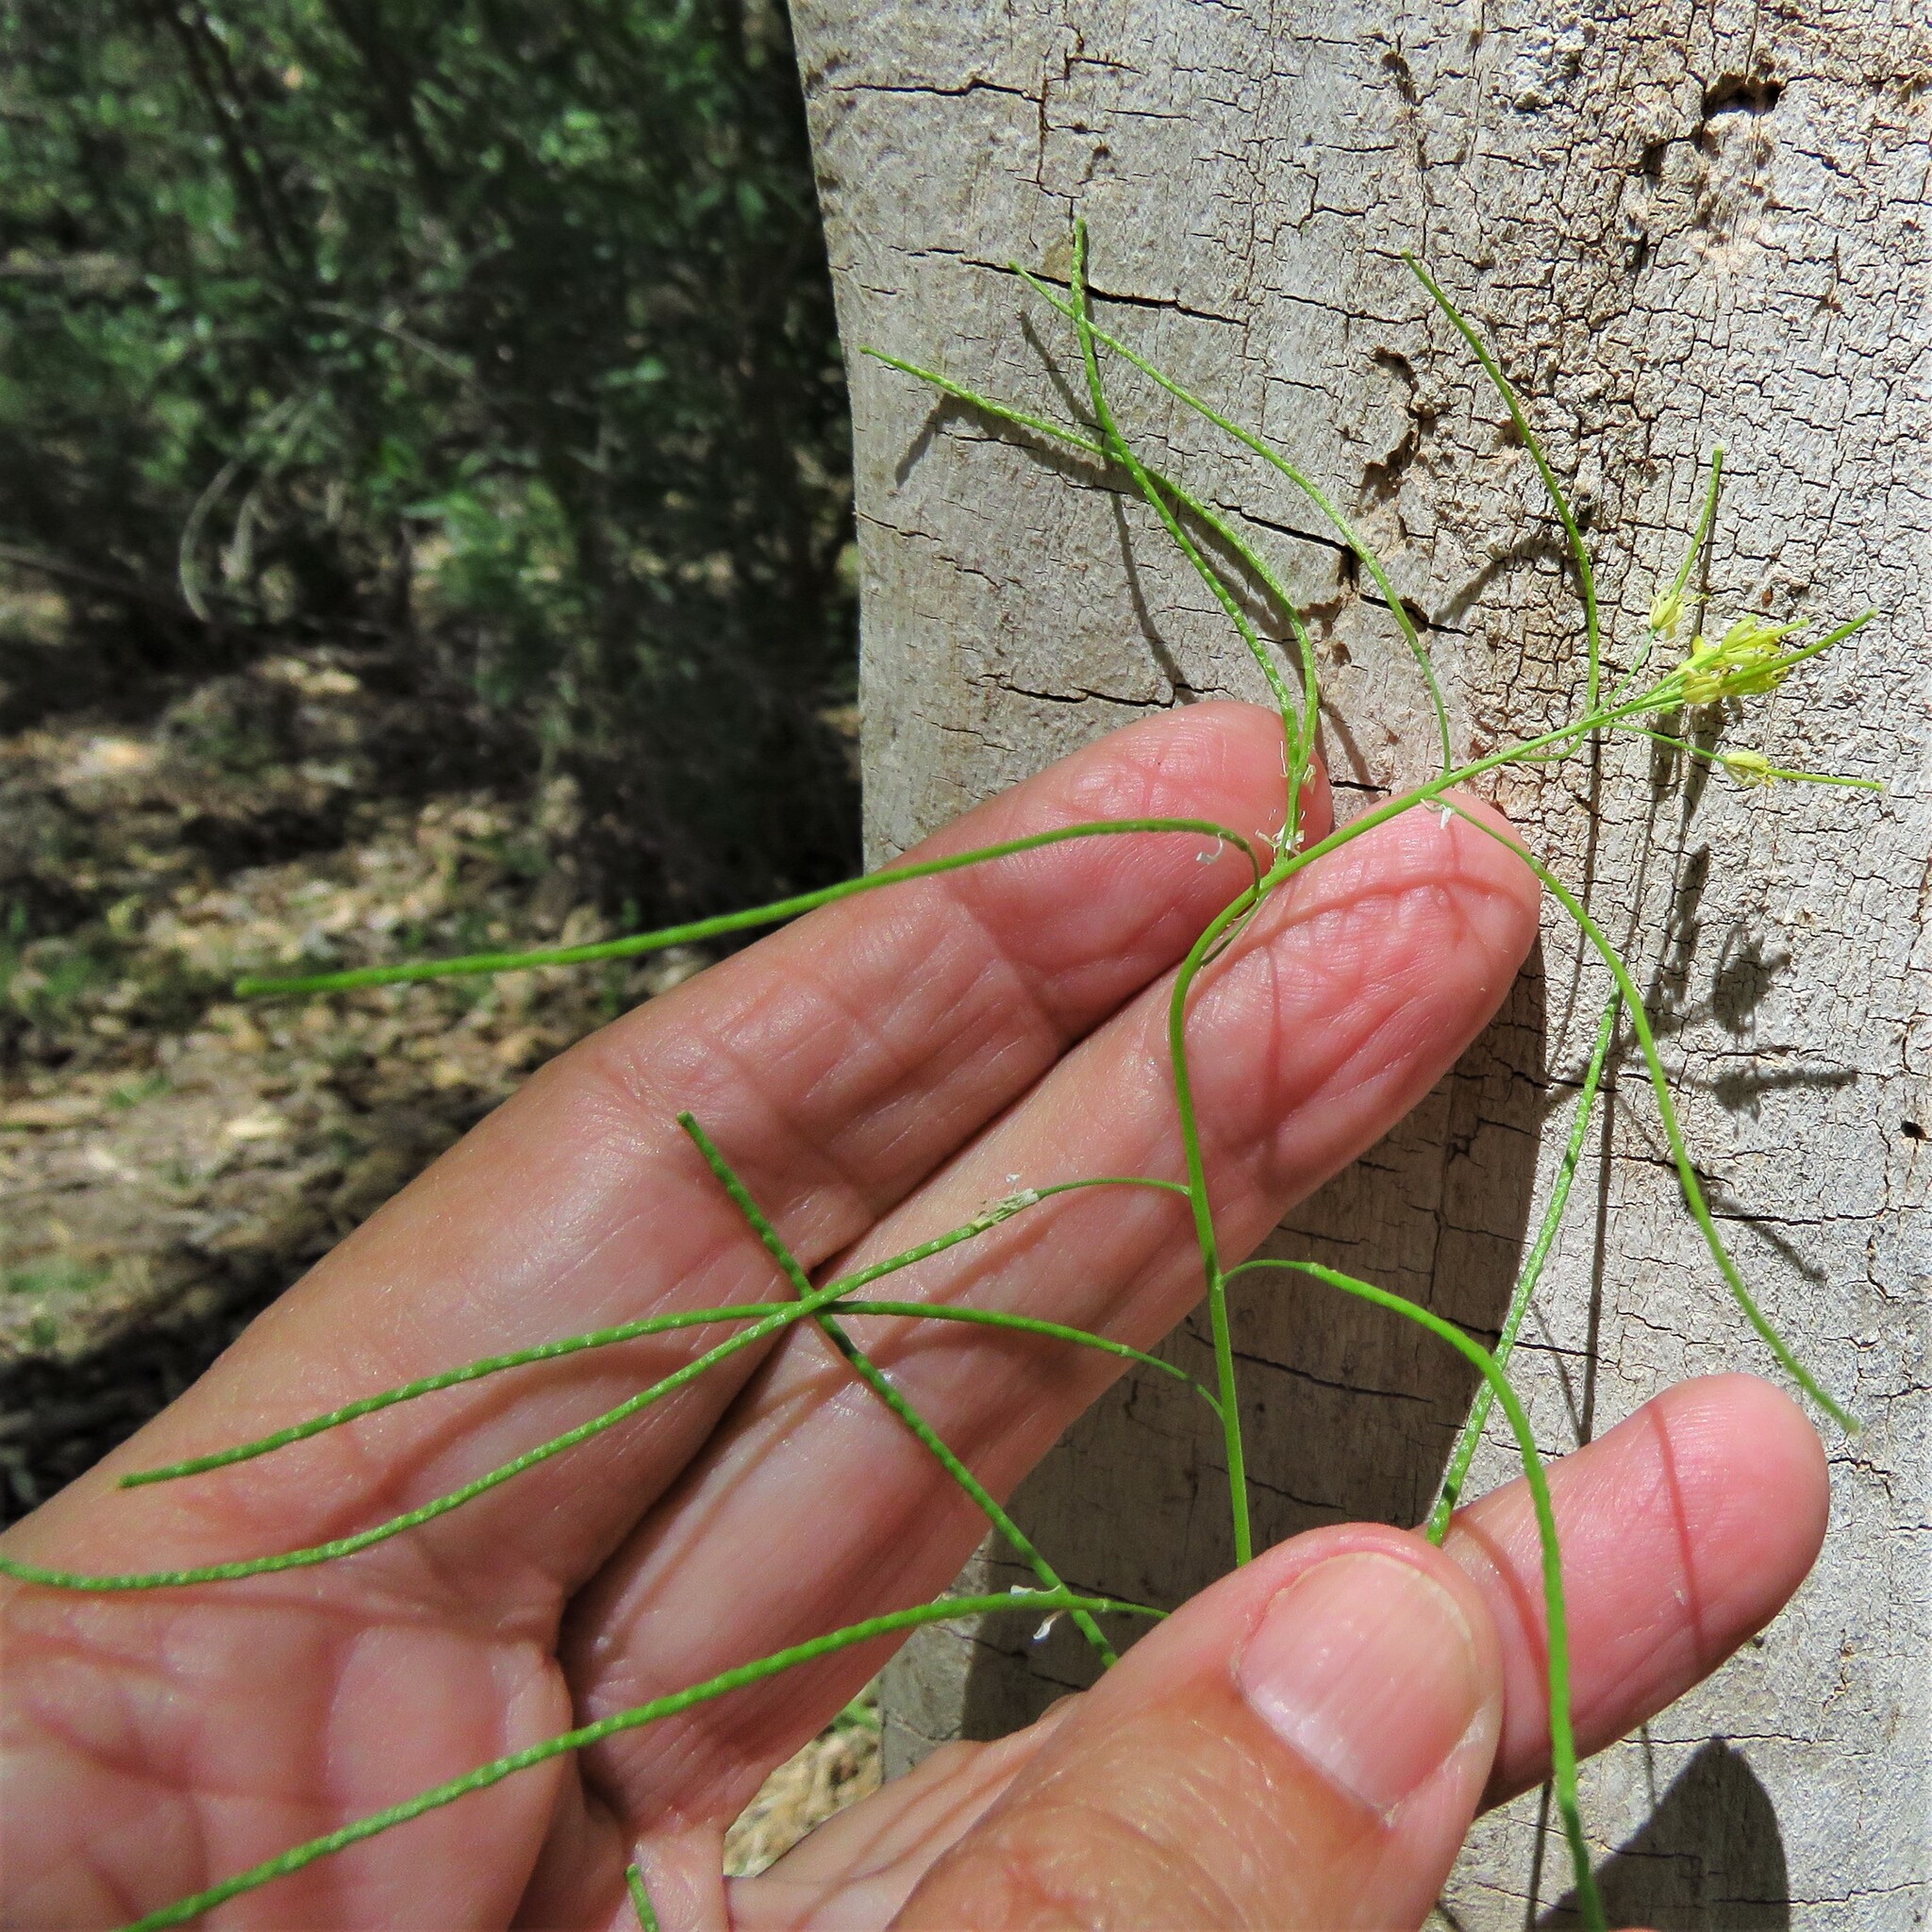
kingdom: Plantae
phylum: Tracheophyta
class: Magnoliopsida
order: Brassicales
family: Brassicaceae
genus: Sisymbrium
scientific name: Sisymbrium irio
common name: London rocket
